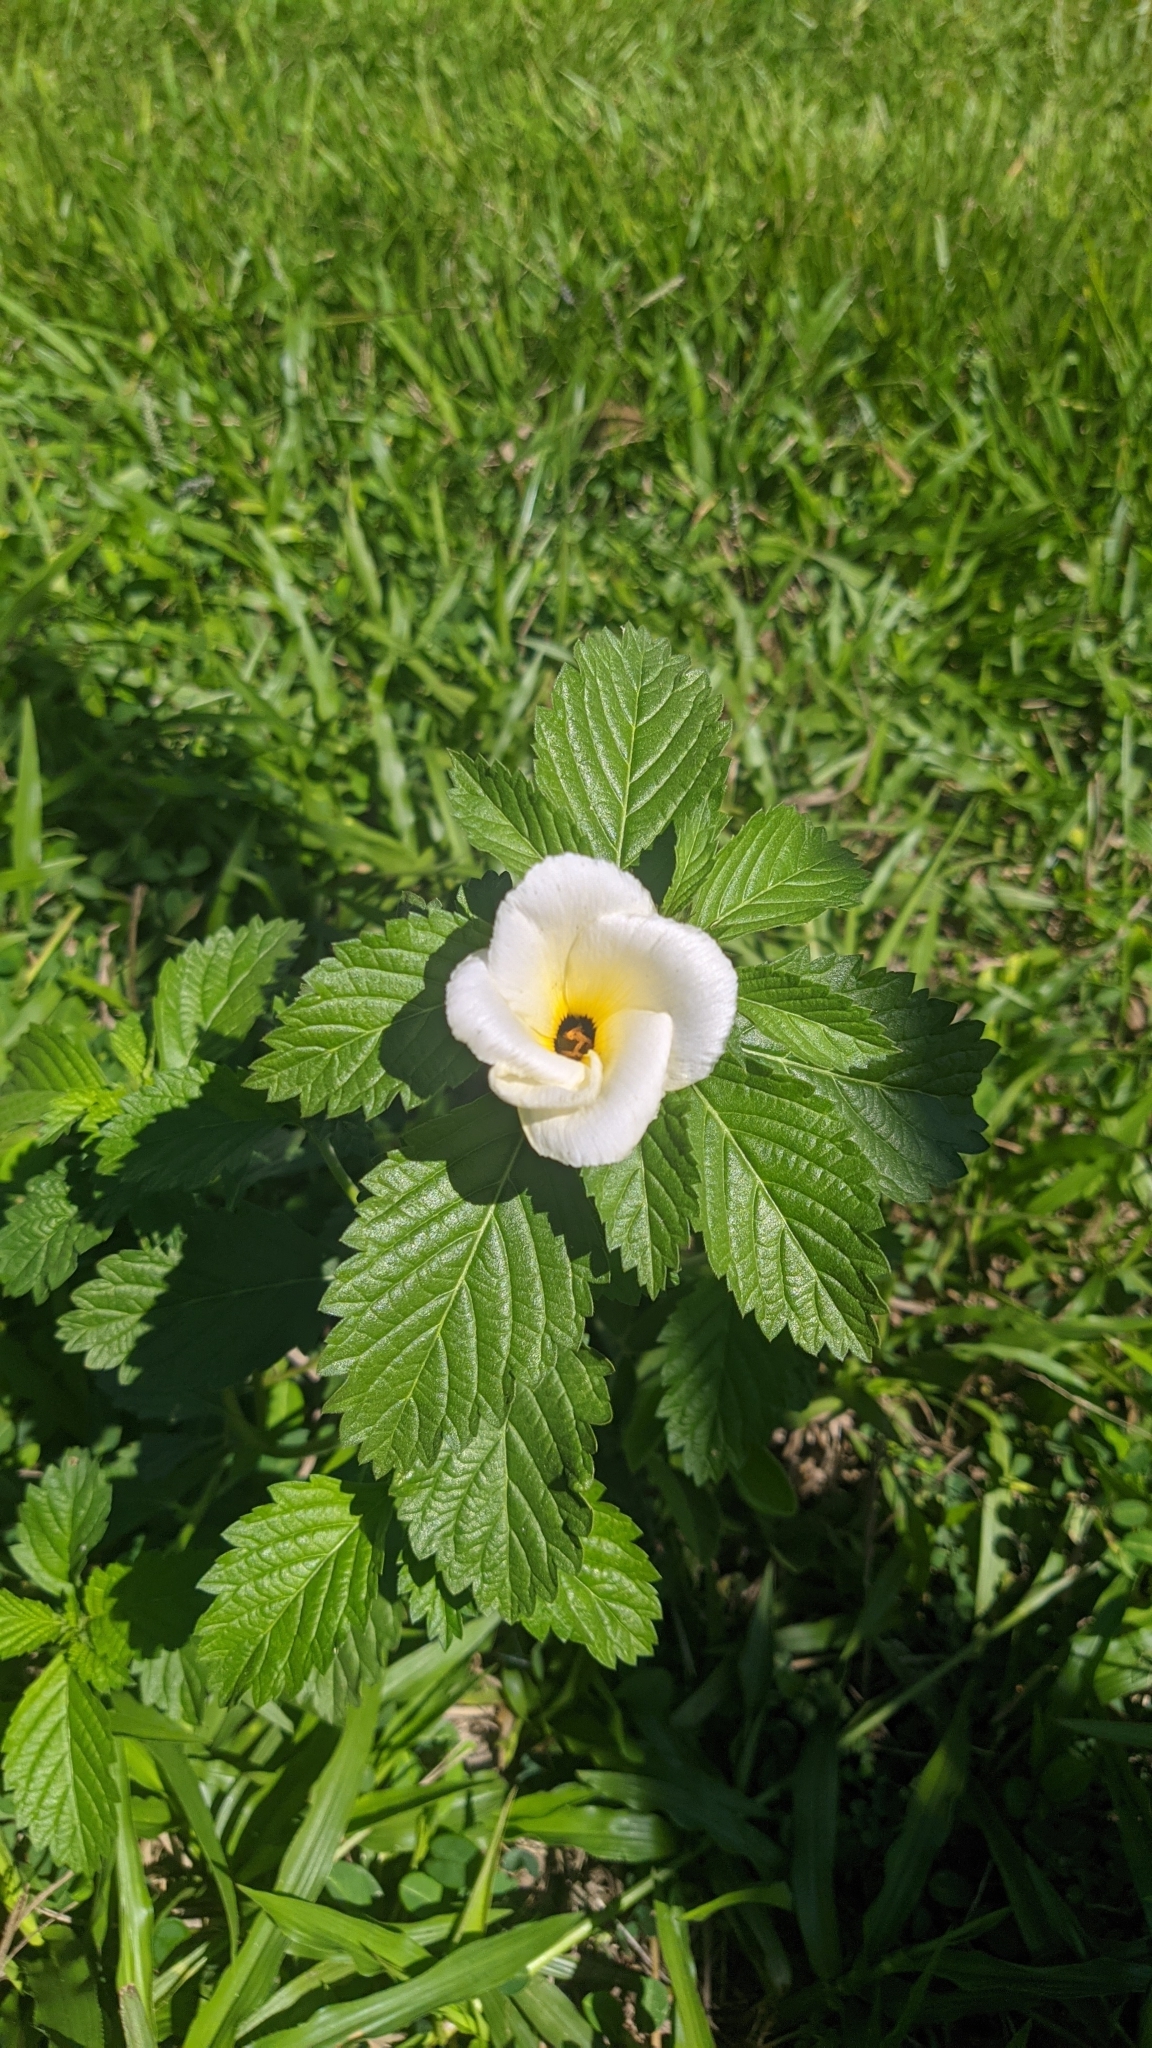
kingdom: Plantae
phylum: Tracheophyta
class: Magnoliopsida
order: Malpighiales
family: Turneraceae
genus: Turnera
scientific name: Turnera subulata
